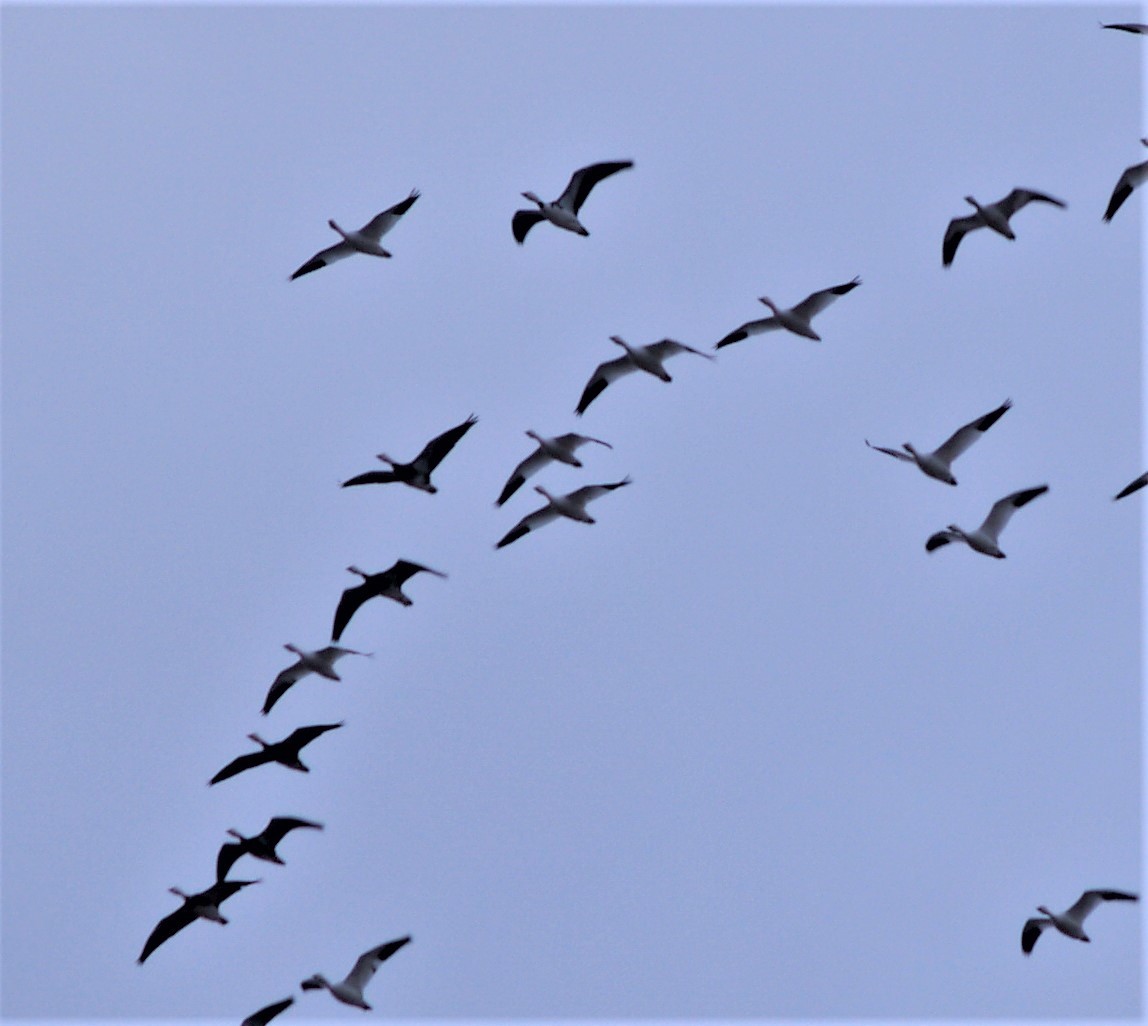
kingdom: Animalia
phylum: Chordata
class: Aves
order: Anseriformes
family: Anatidae
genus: Anser
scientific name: Anser caerulescens
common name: Snow goose
